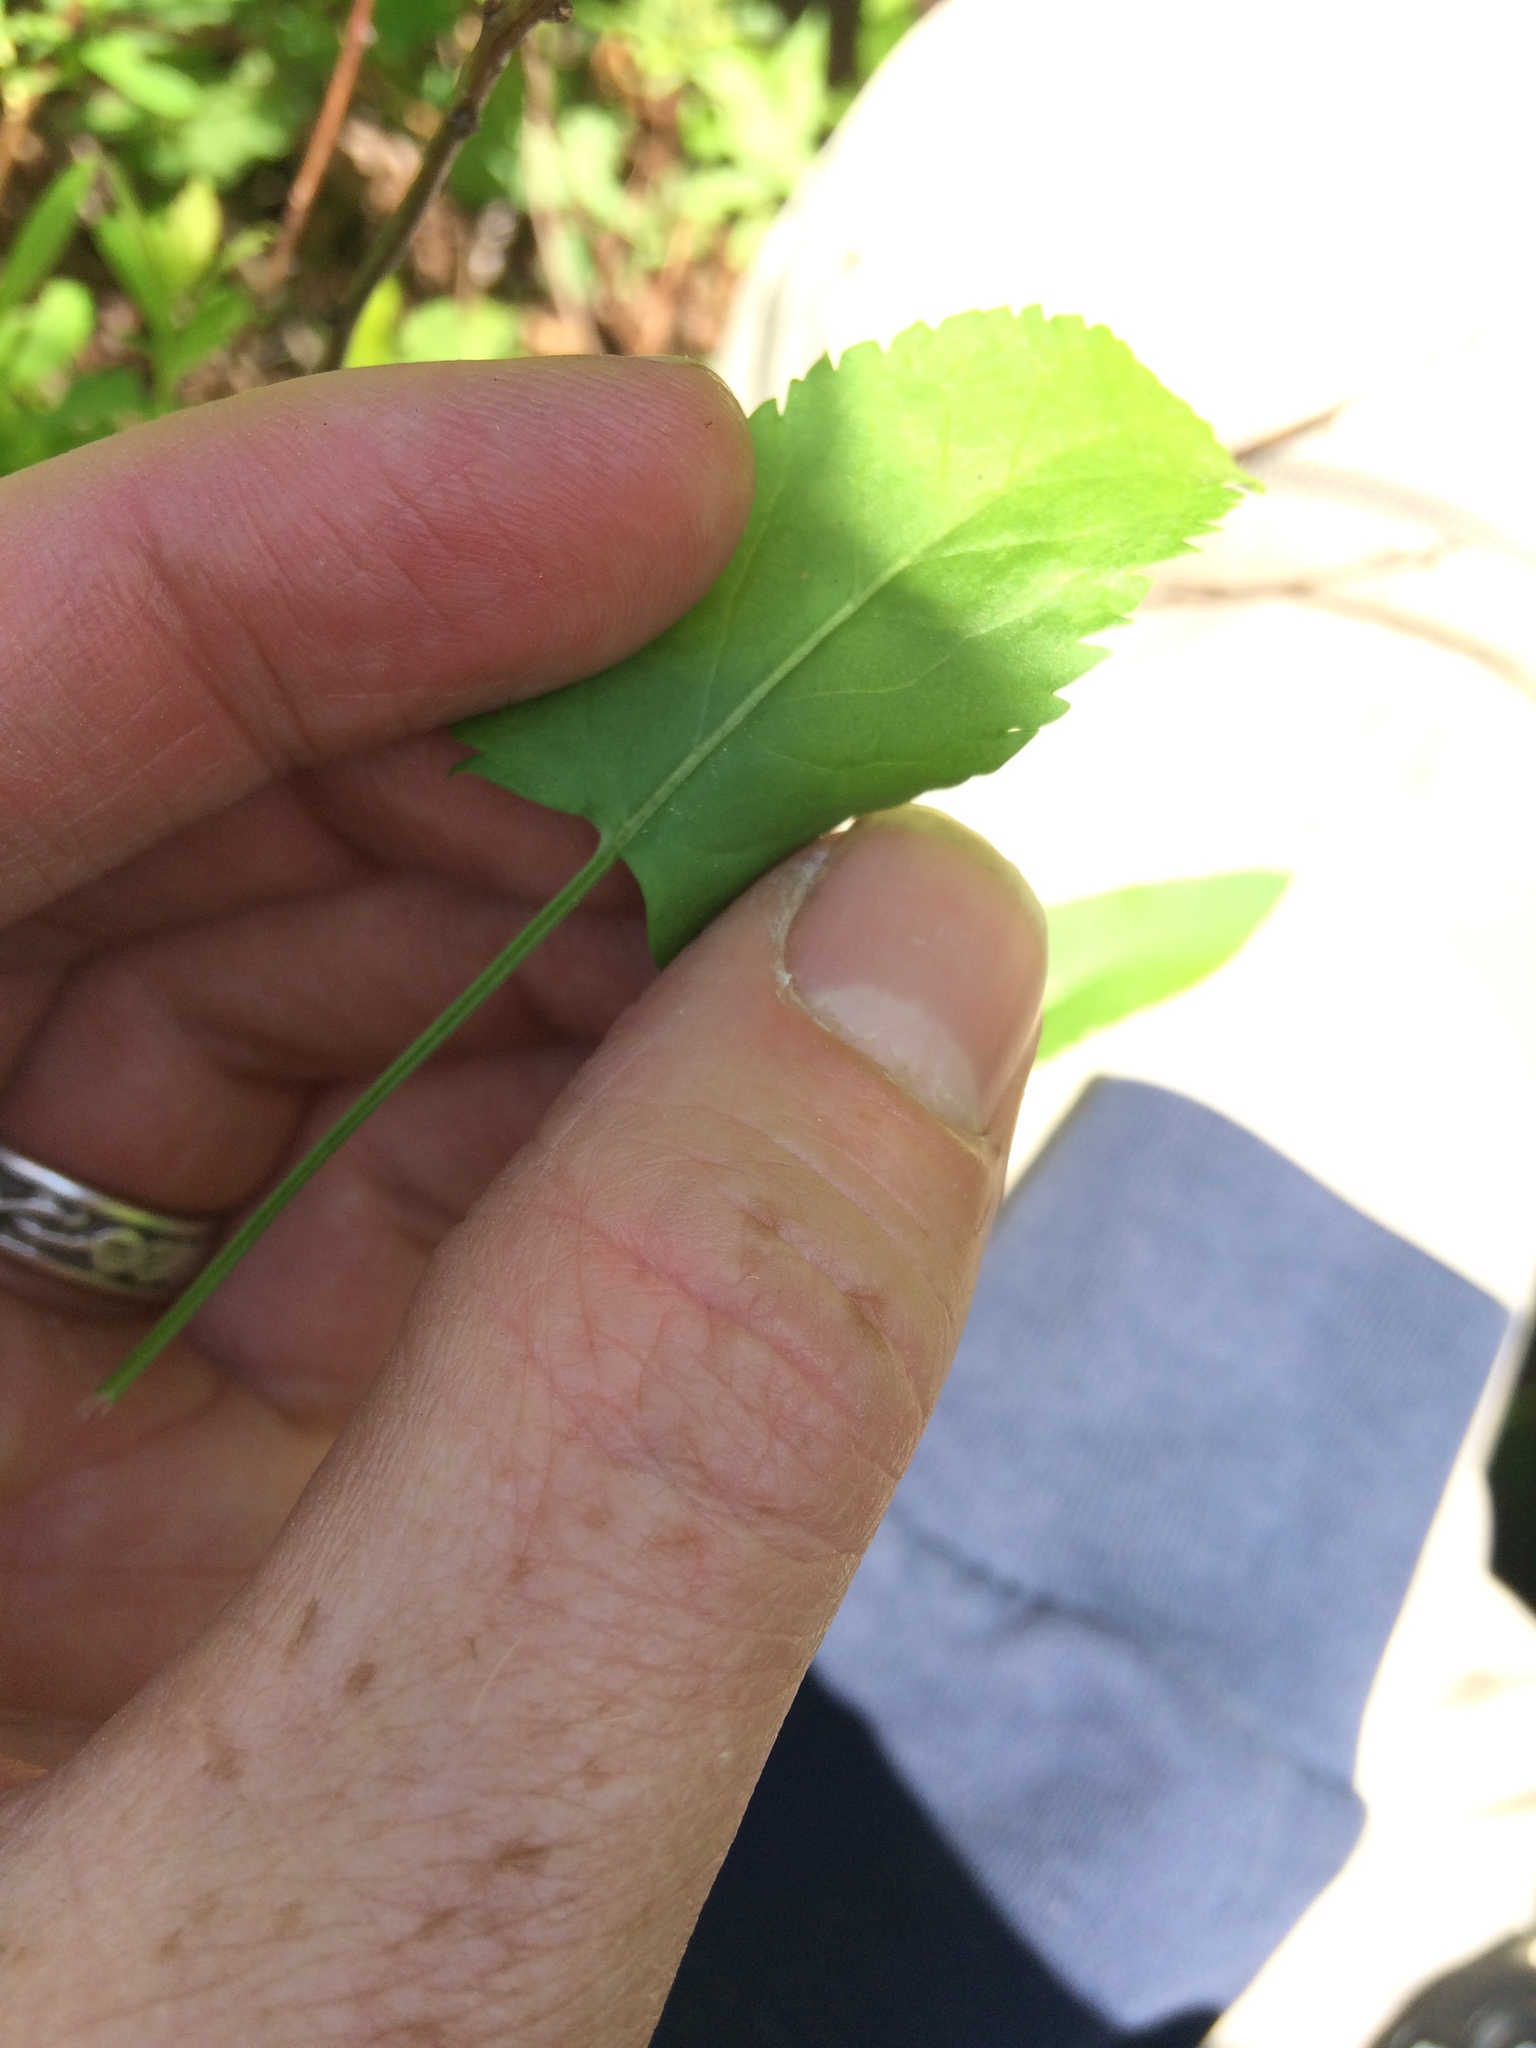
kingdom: Plantae
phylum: Tracheophyta
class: Magnoliopsida
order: Asterales
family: Asteraceae
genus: Packera
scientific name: Packera schweinitziana
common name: Schweinitz's ragwort
